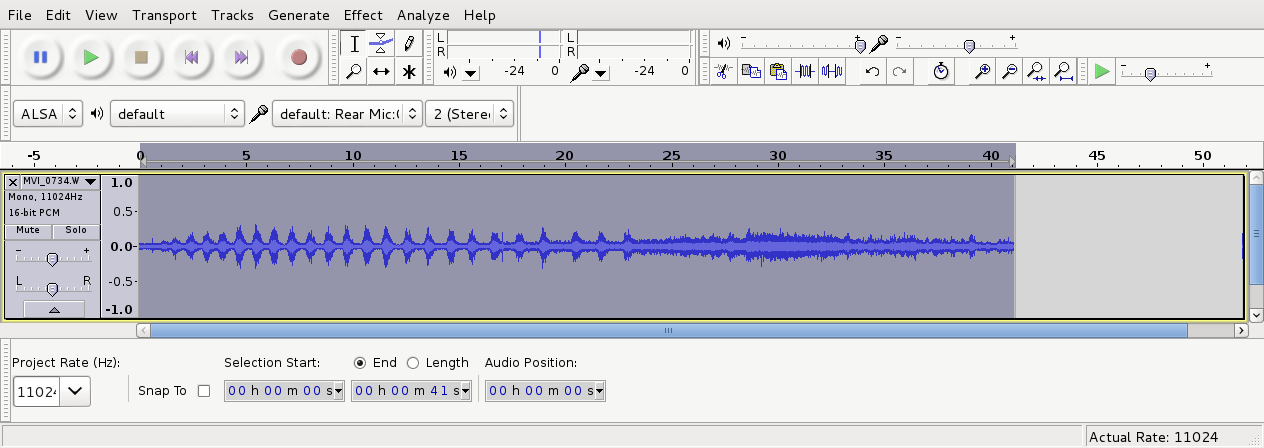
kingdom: Animalia
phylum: Chordata
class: Aves
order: Apterygiformes
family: Apterygidae
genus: Apteryx
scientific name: Apteryx owenii
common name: Little spotted kiwi
